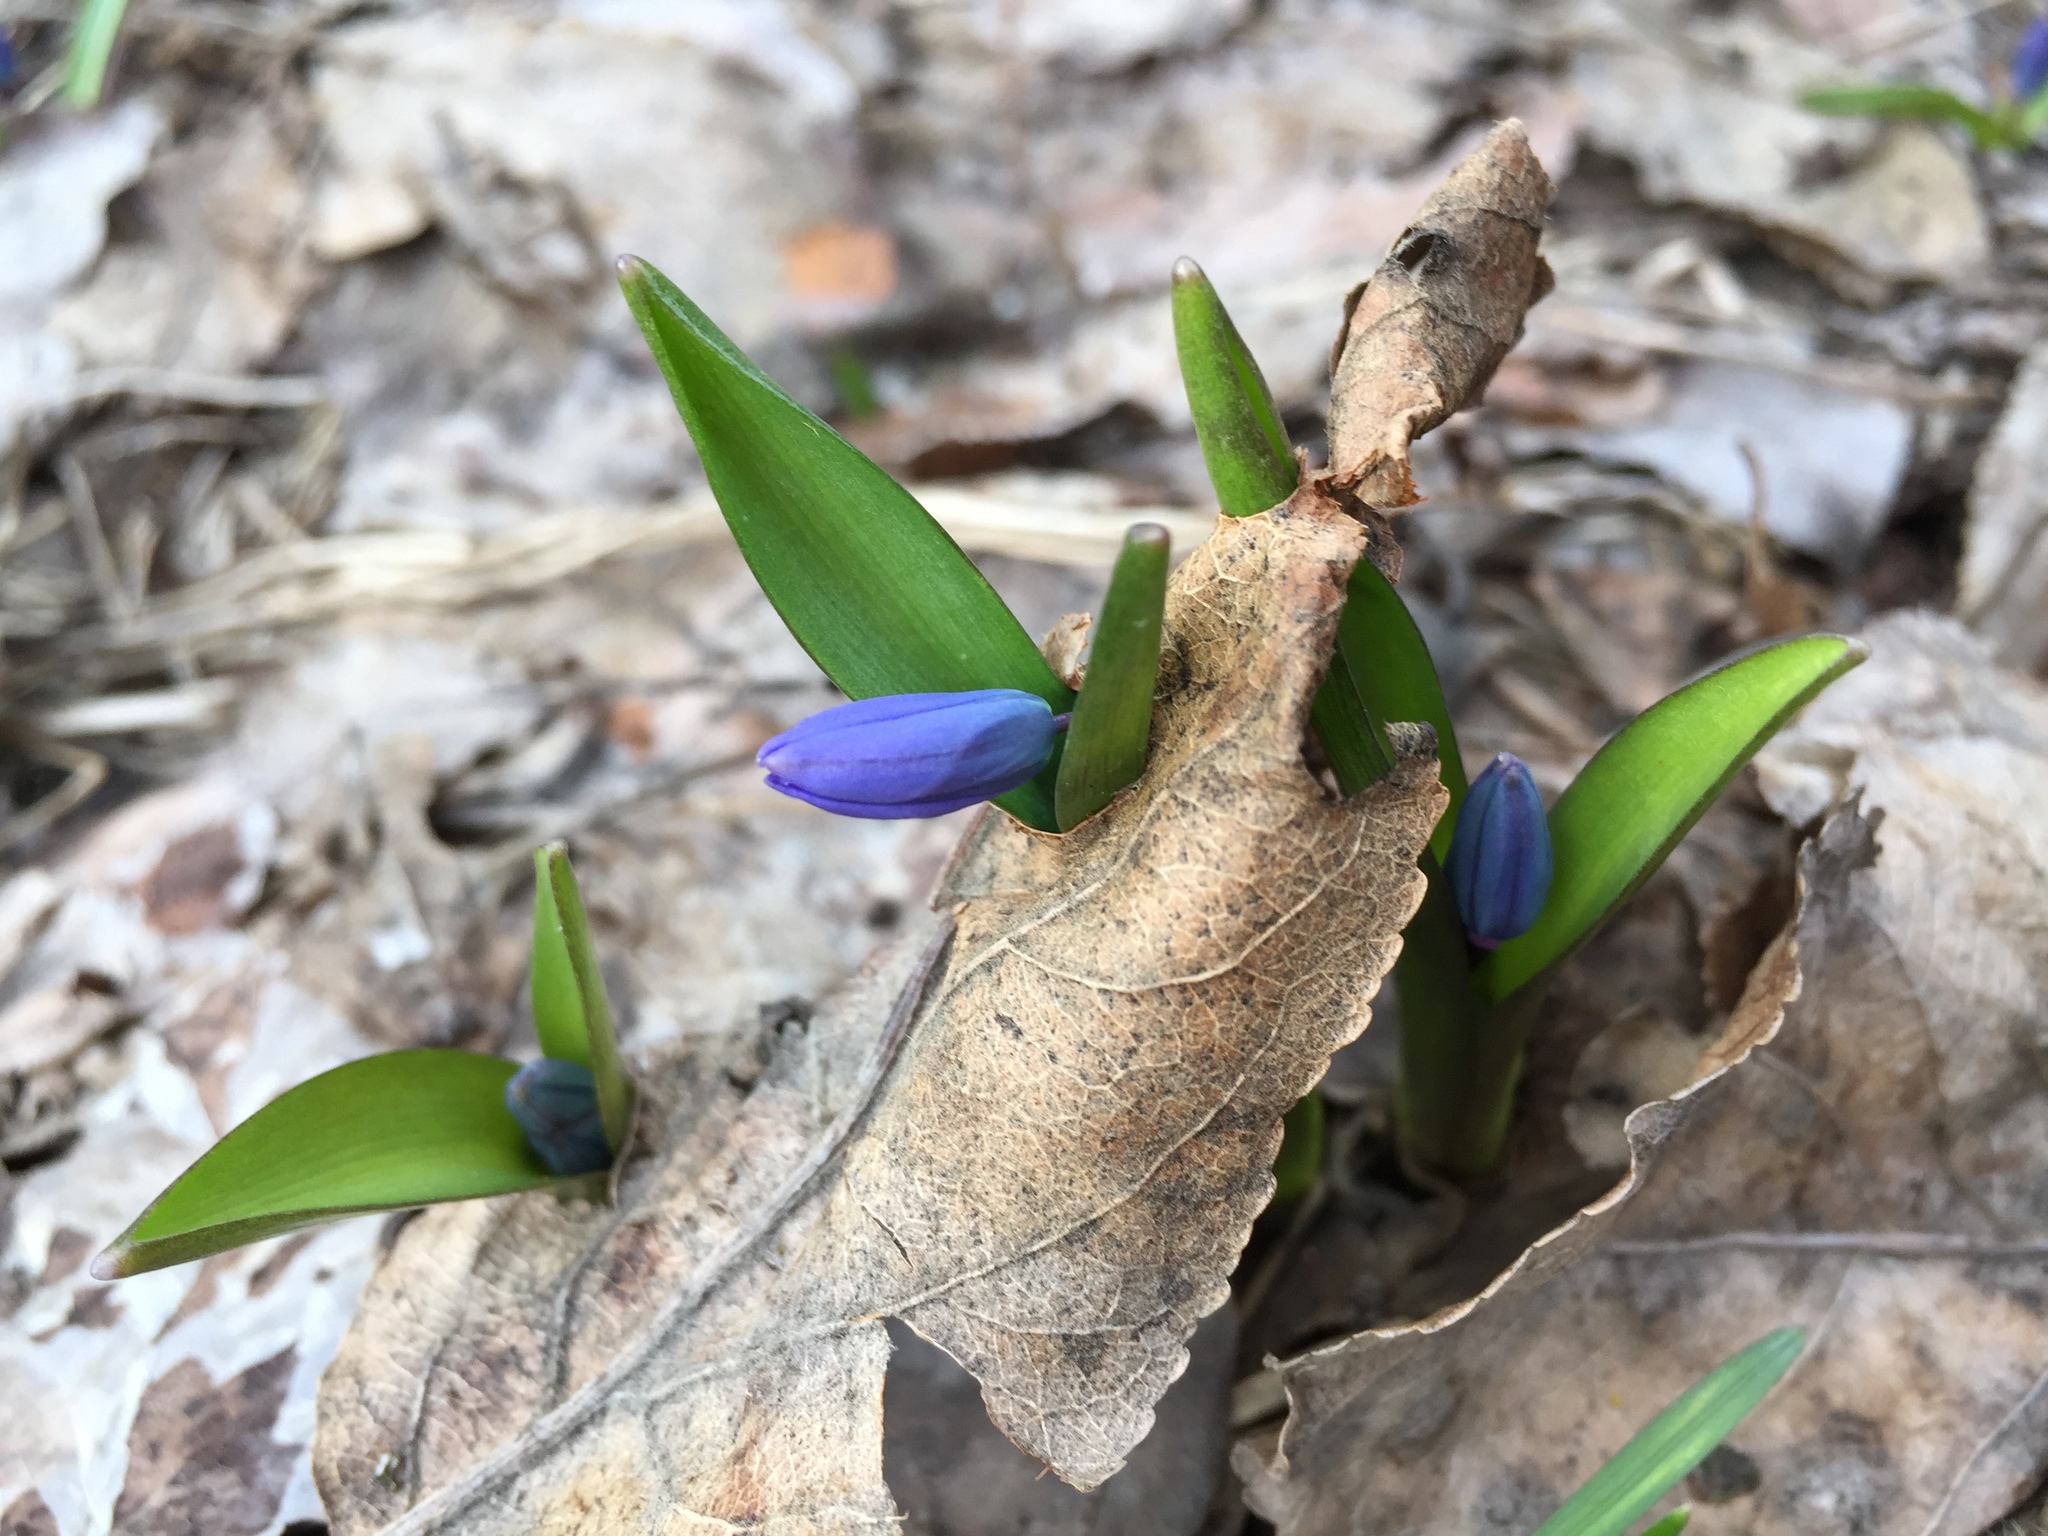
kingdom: Plantae
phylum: Tracheophyta
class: Liliopsida
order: Asparagales
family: Asparagaceae
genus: Scilla
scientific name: Scilla siberica
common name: Siberian squill
